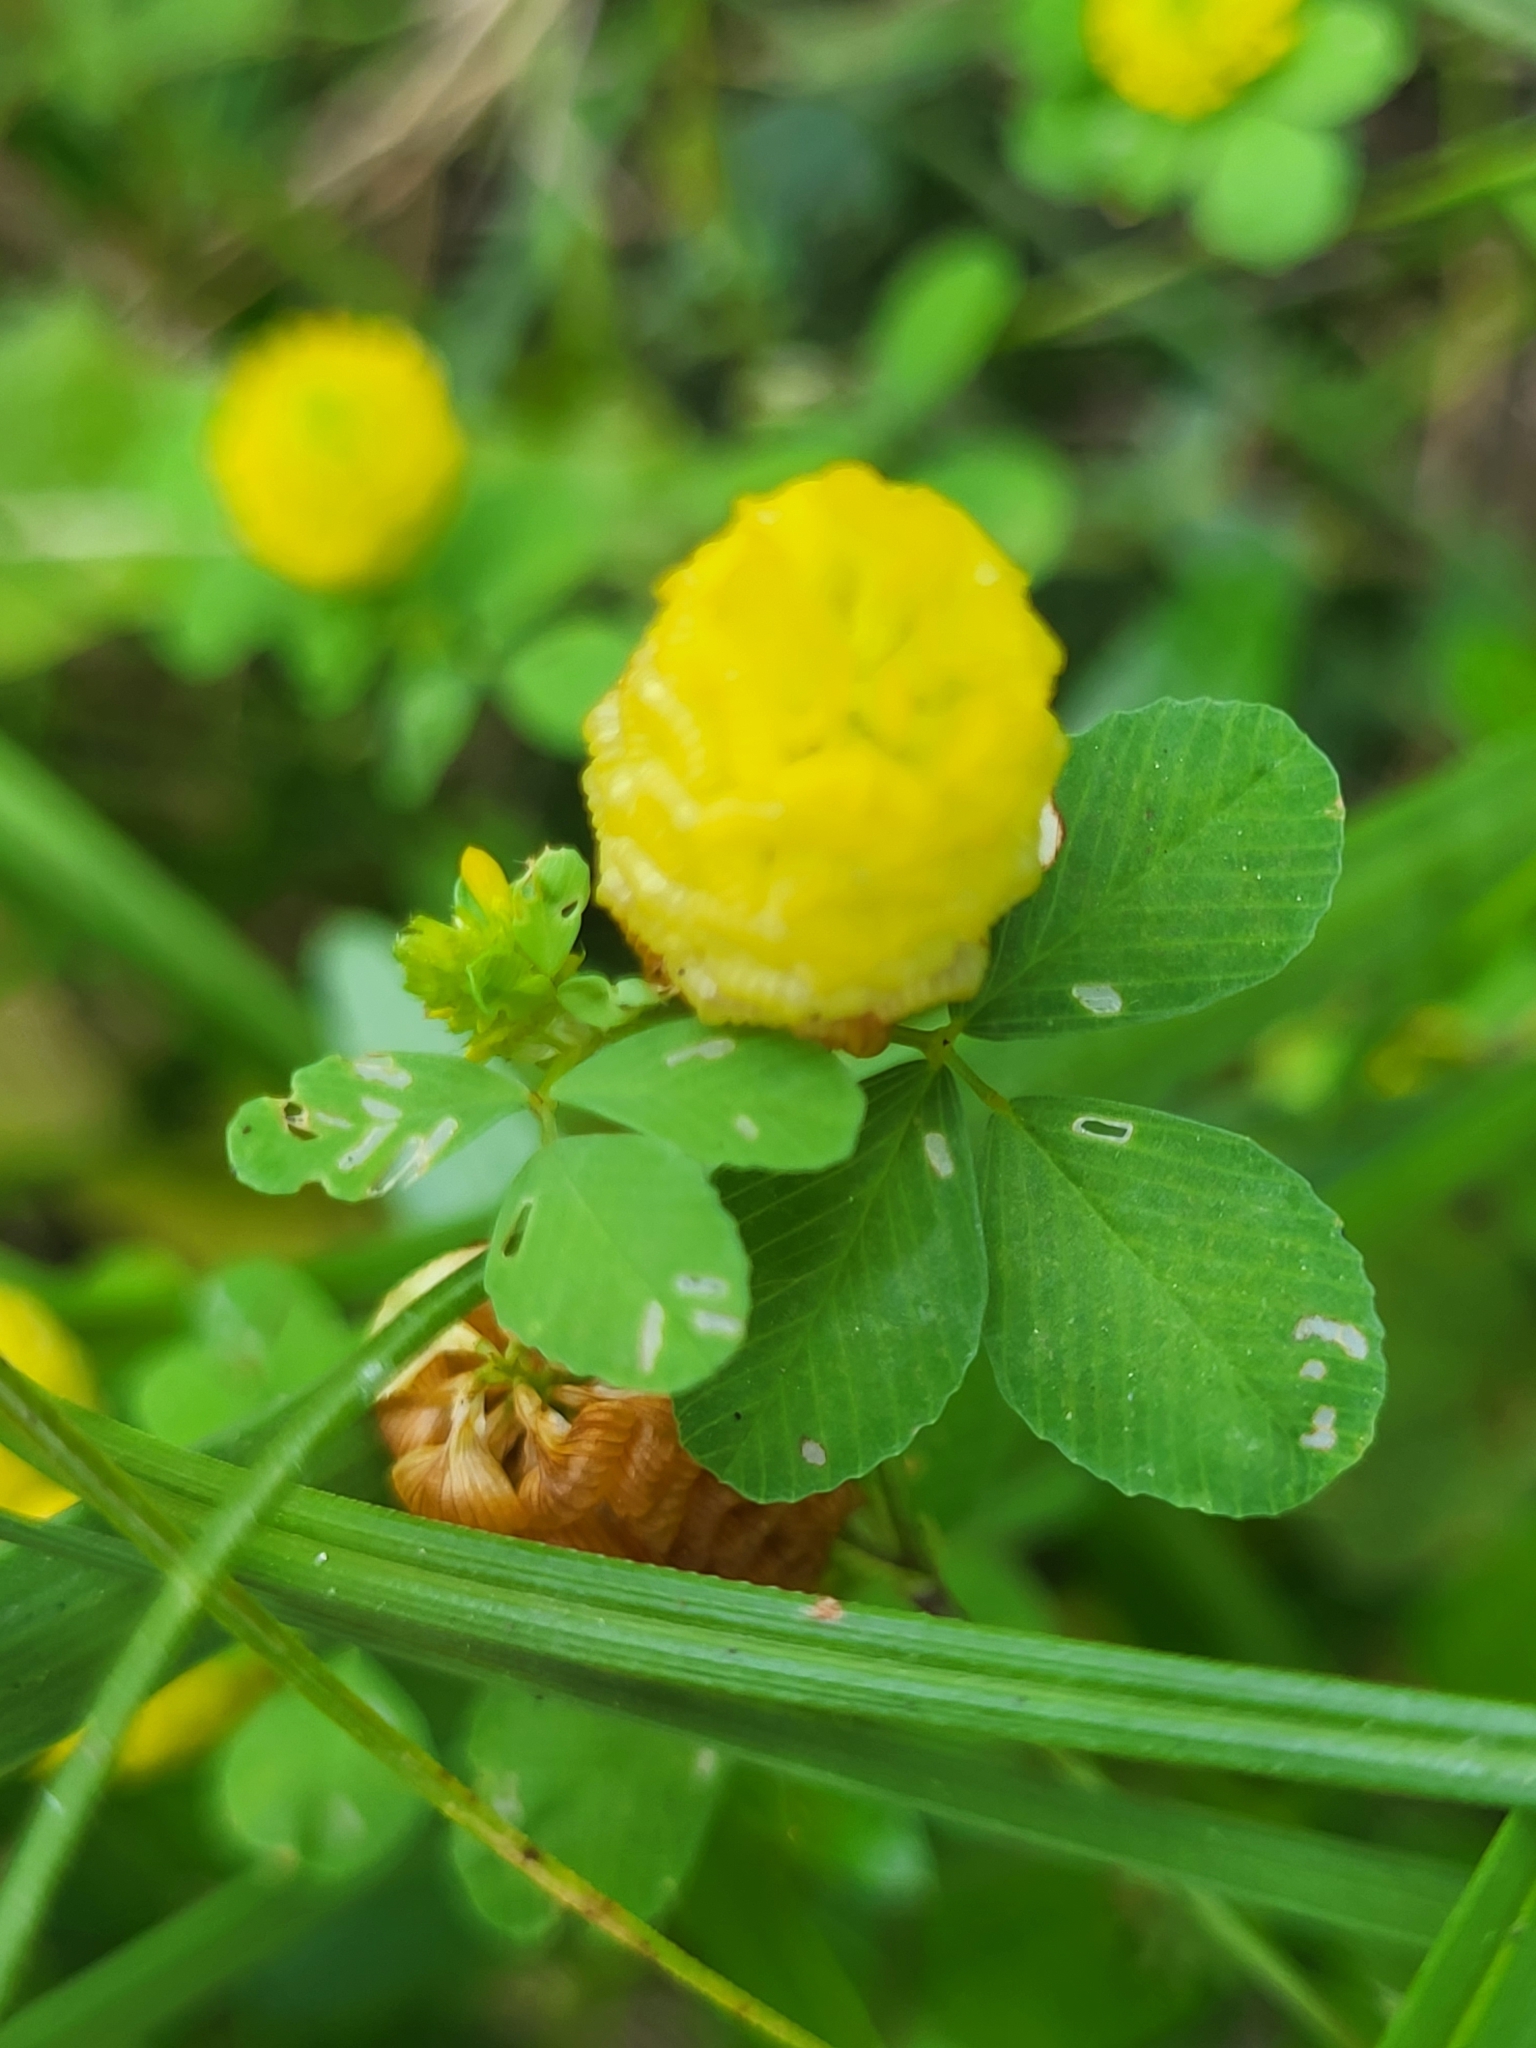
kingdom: Plantae
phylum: Tracheophyta
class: Magnoliopsida
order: Fabales
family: Fabaceae
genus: Trifolium
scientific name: Trifolium campestre
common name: Field clover
